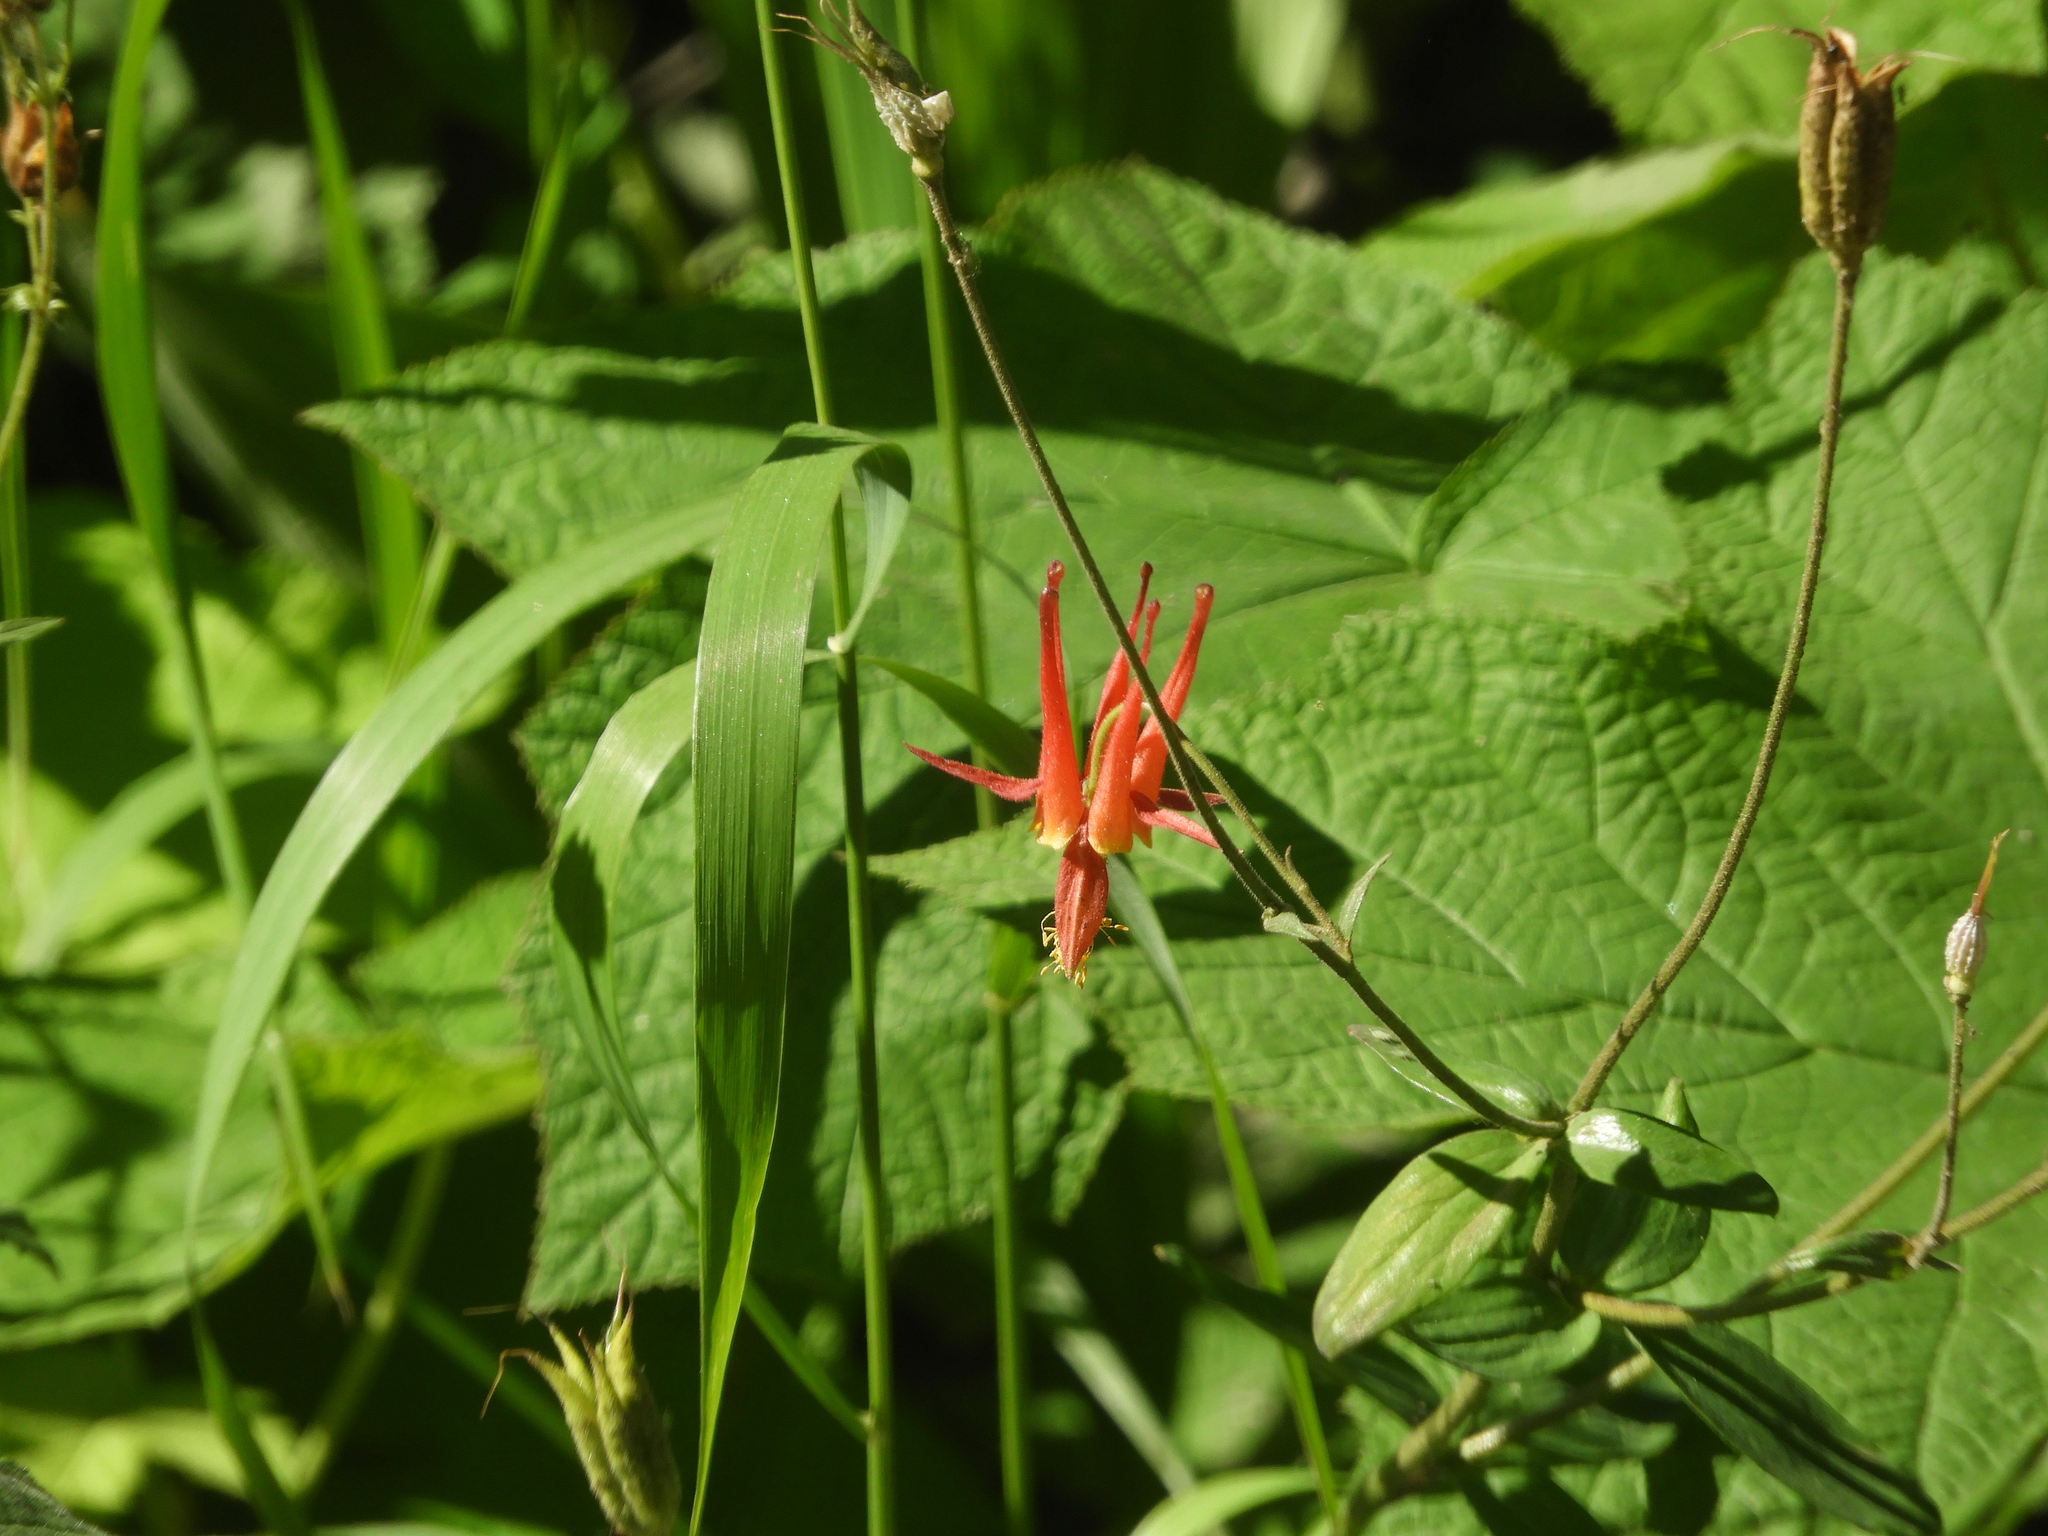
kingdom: Plantae
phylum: Tracheophyta
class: Magnoliopsida
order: Ranunculales
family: Ranunculaceae
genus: Aquilegia
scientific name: Aquilegia formosa
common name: Sitka columbine
